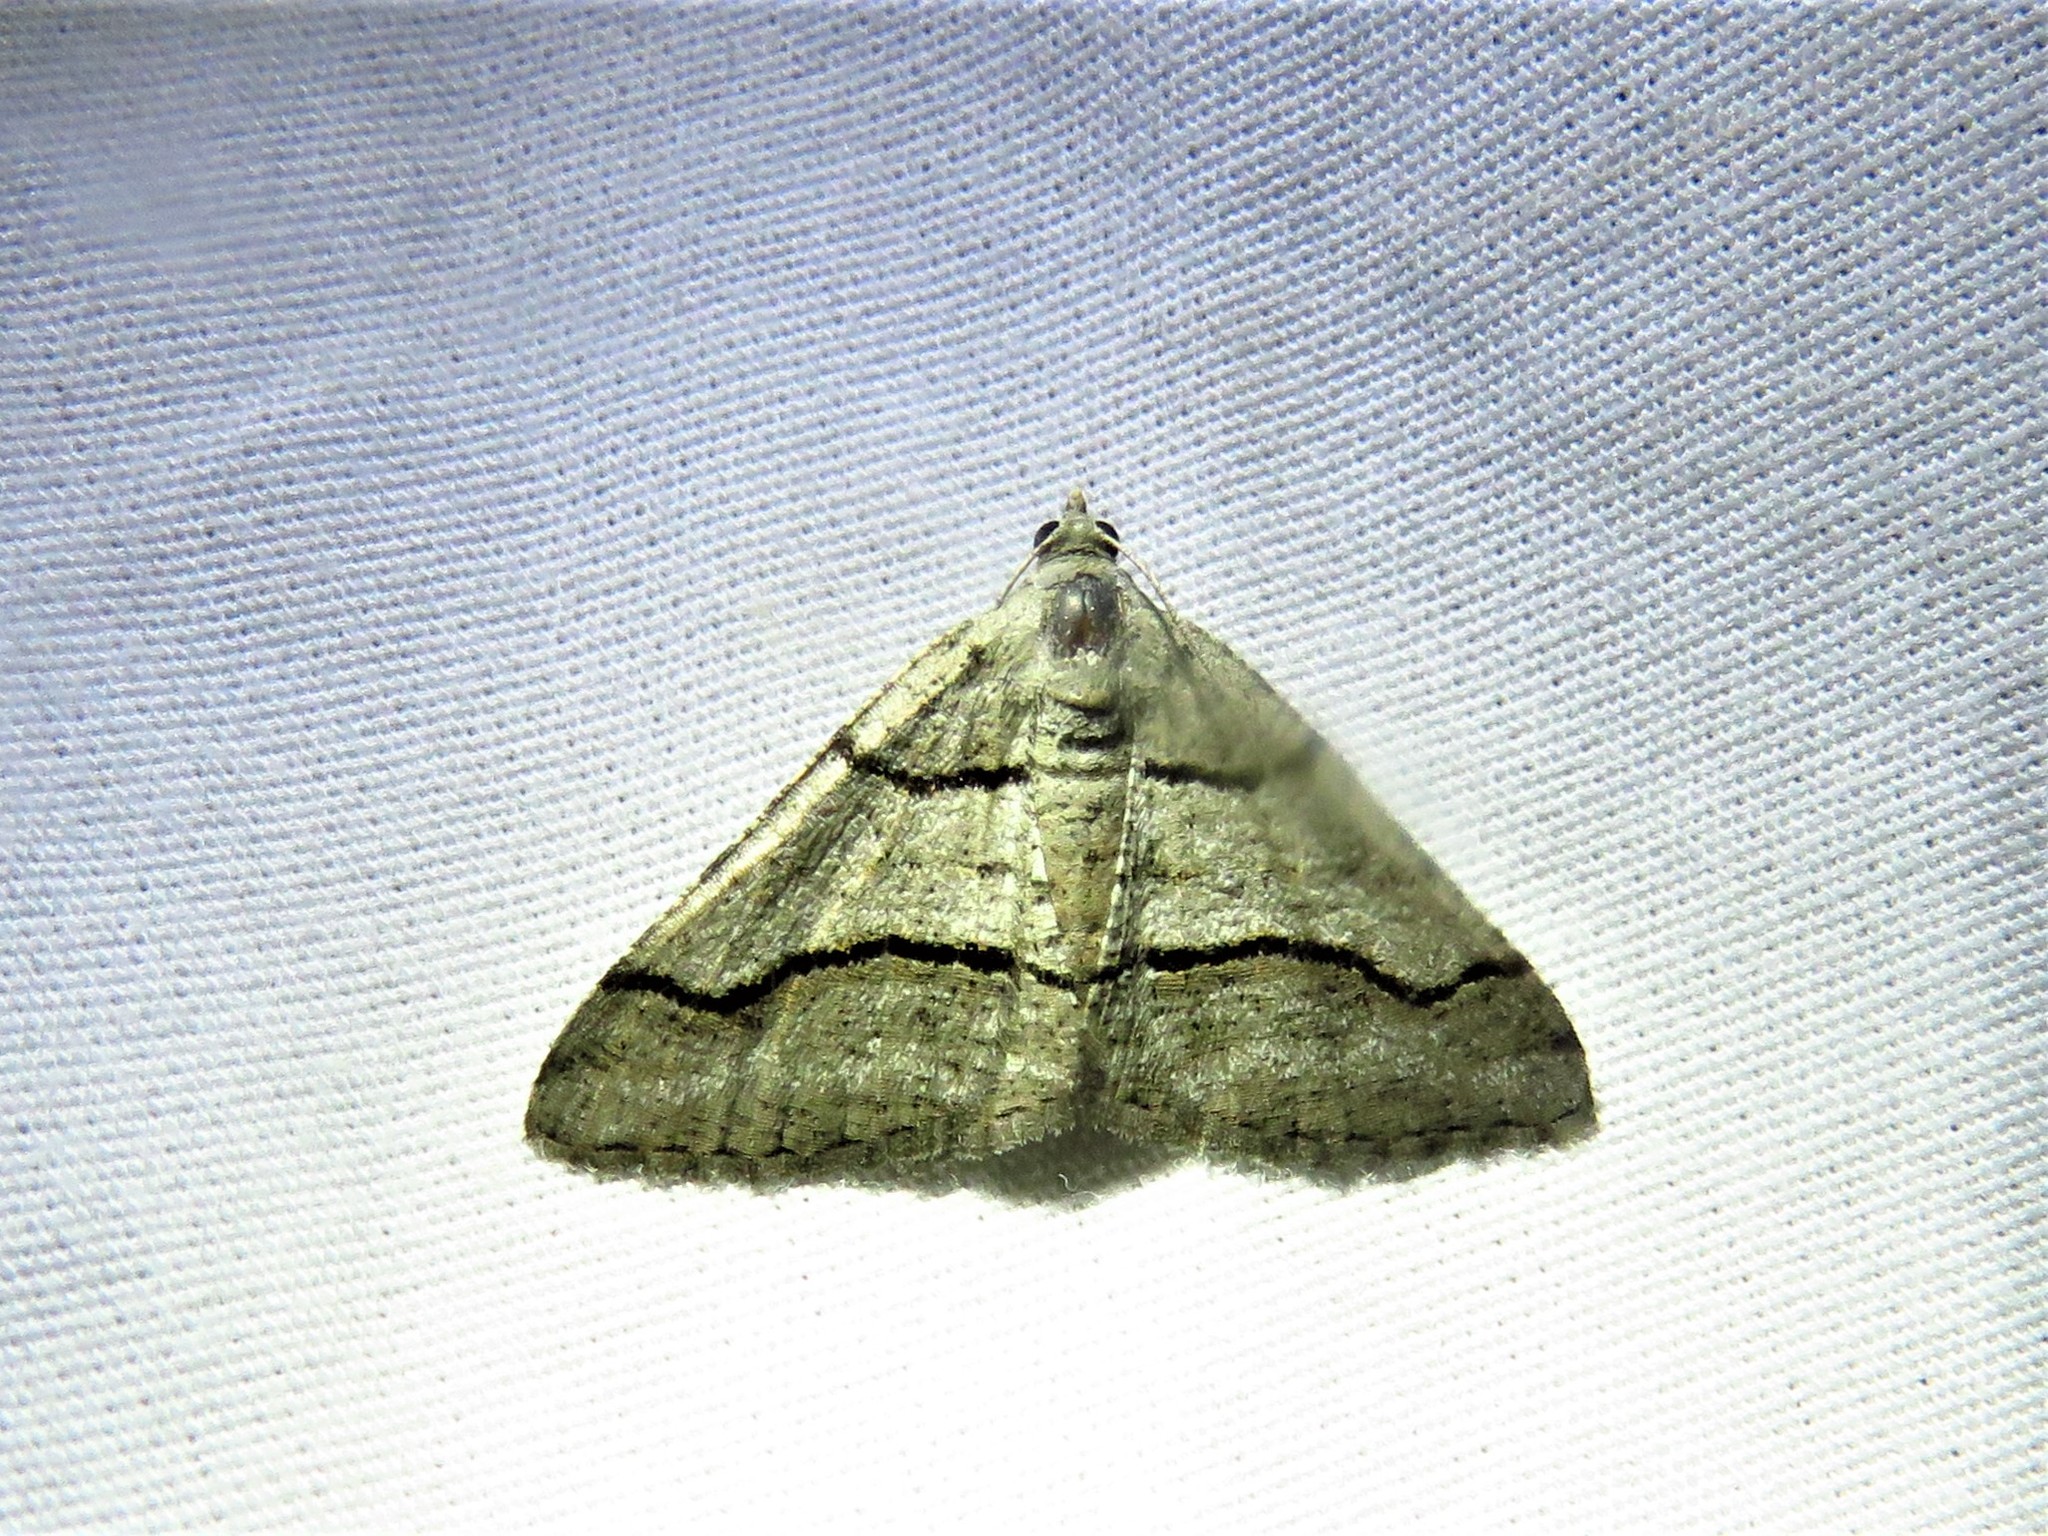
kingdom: Animalia
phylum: Arthropoda
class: Insecta
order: Lepidoptera
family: Geometridae
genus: Digrammia
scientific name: Digrammia continuata
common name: Curve-lined angle
